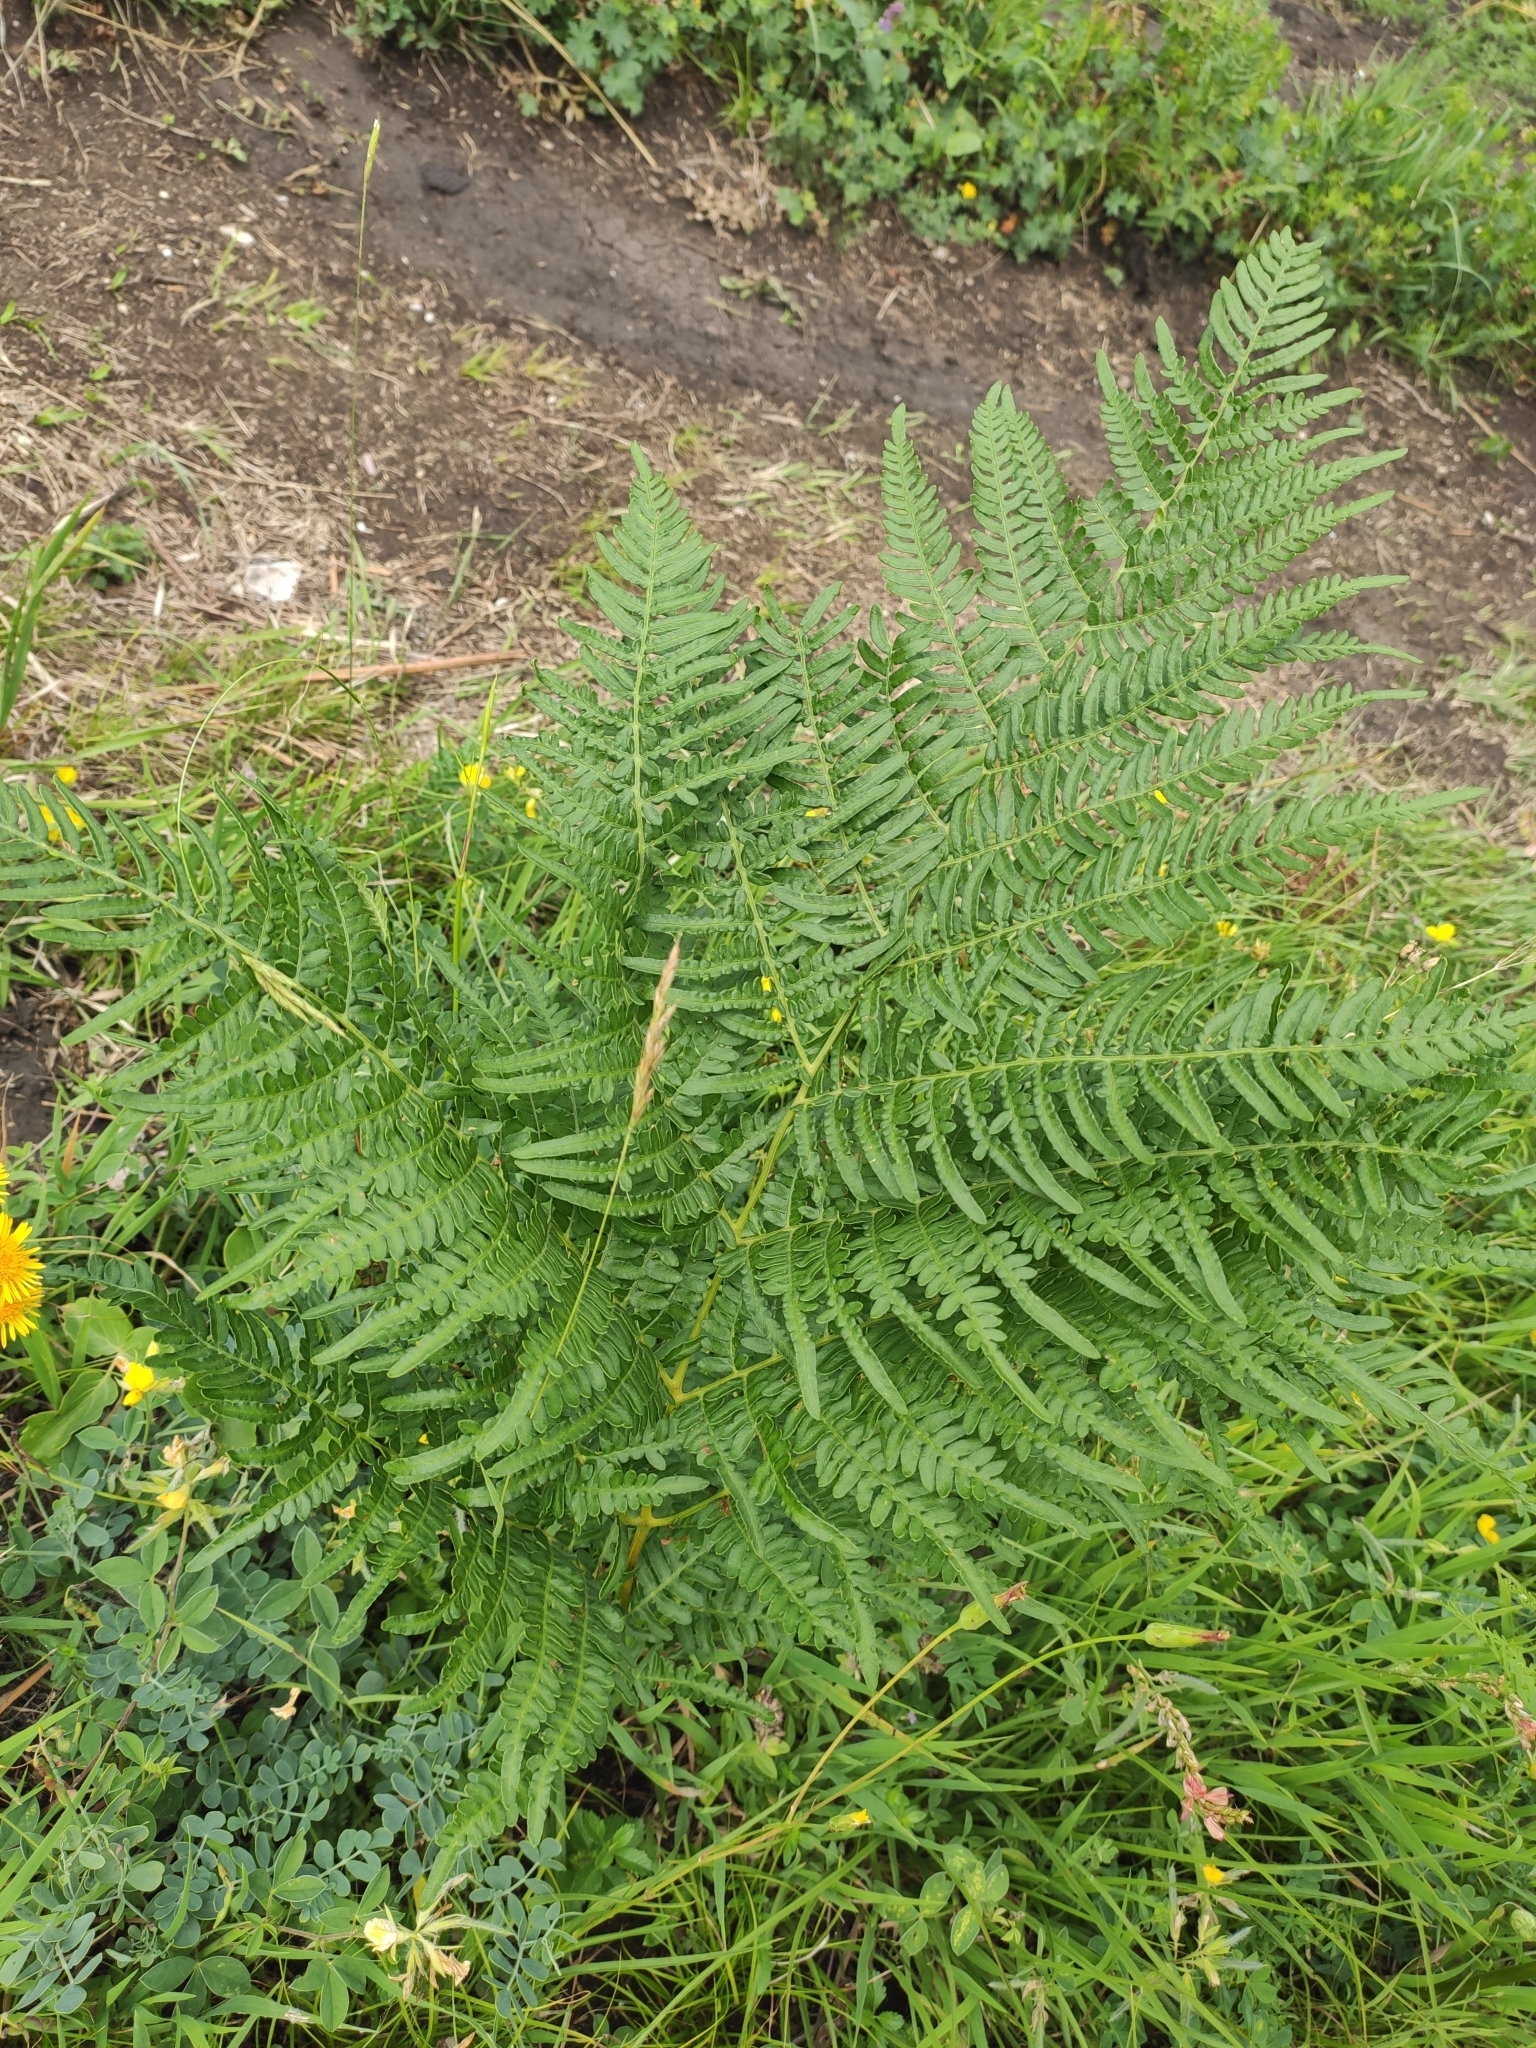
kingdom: Plantae
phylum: Tracheophyta
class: Polypodiopsida
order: Polypodiales
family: Dennstaedtiaceae
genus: Pteridium
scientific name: Pteridium tauricum
